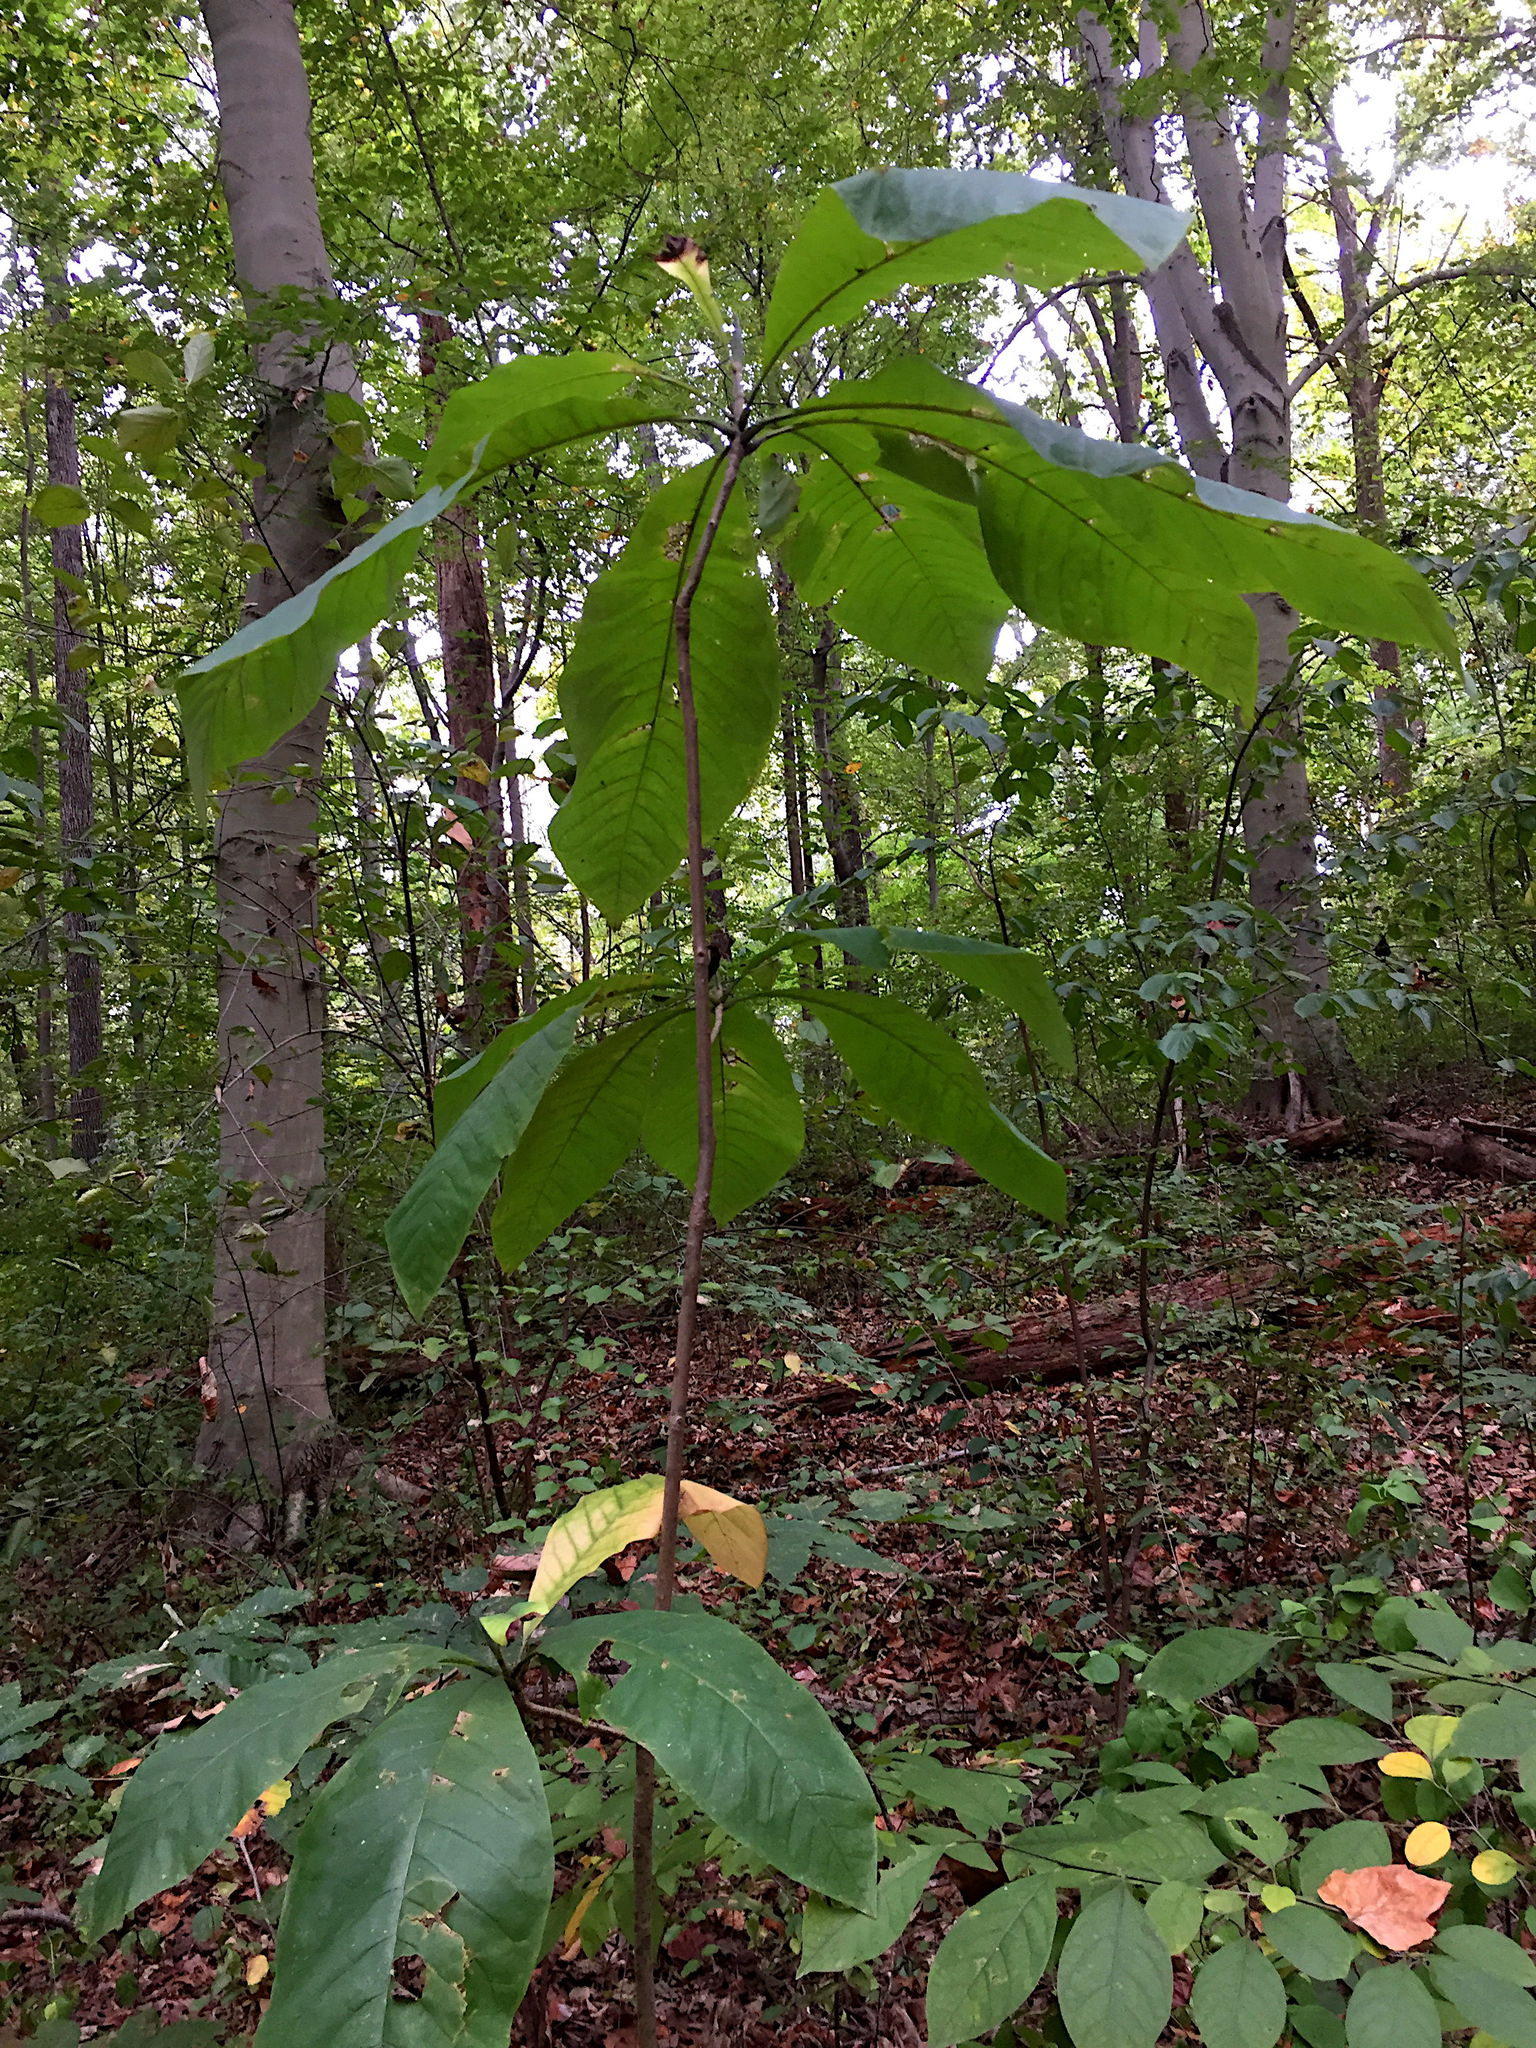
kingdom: Plantae
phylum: Tracheophyta
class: Magnoliopsida
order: Magnoliales
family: Magnoliaceae
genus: Magnolia
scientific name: Magnolia tripetala
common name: Umbrella magnolia
